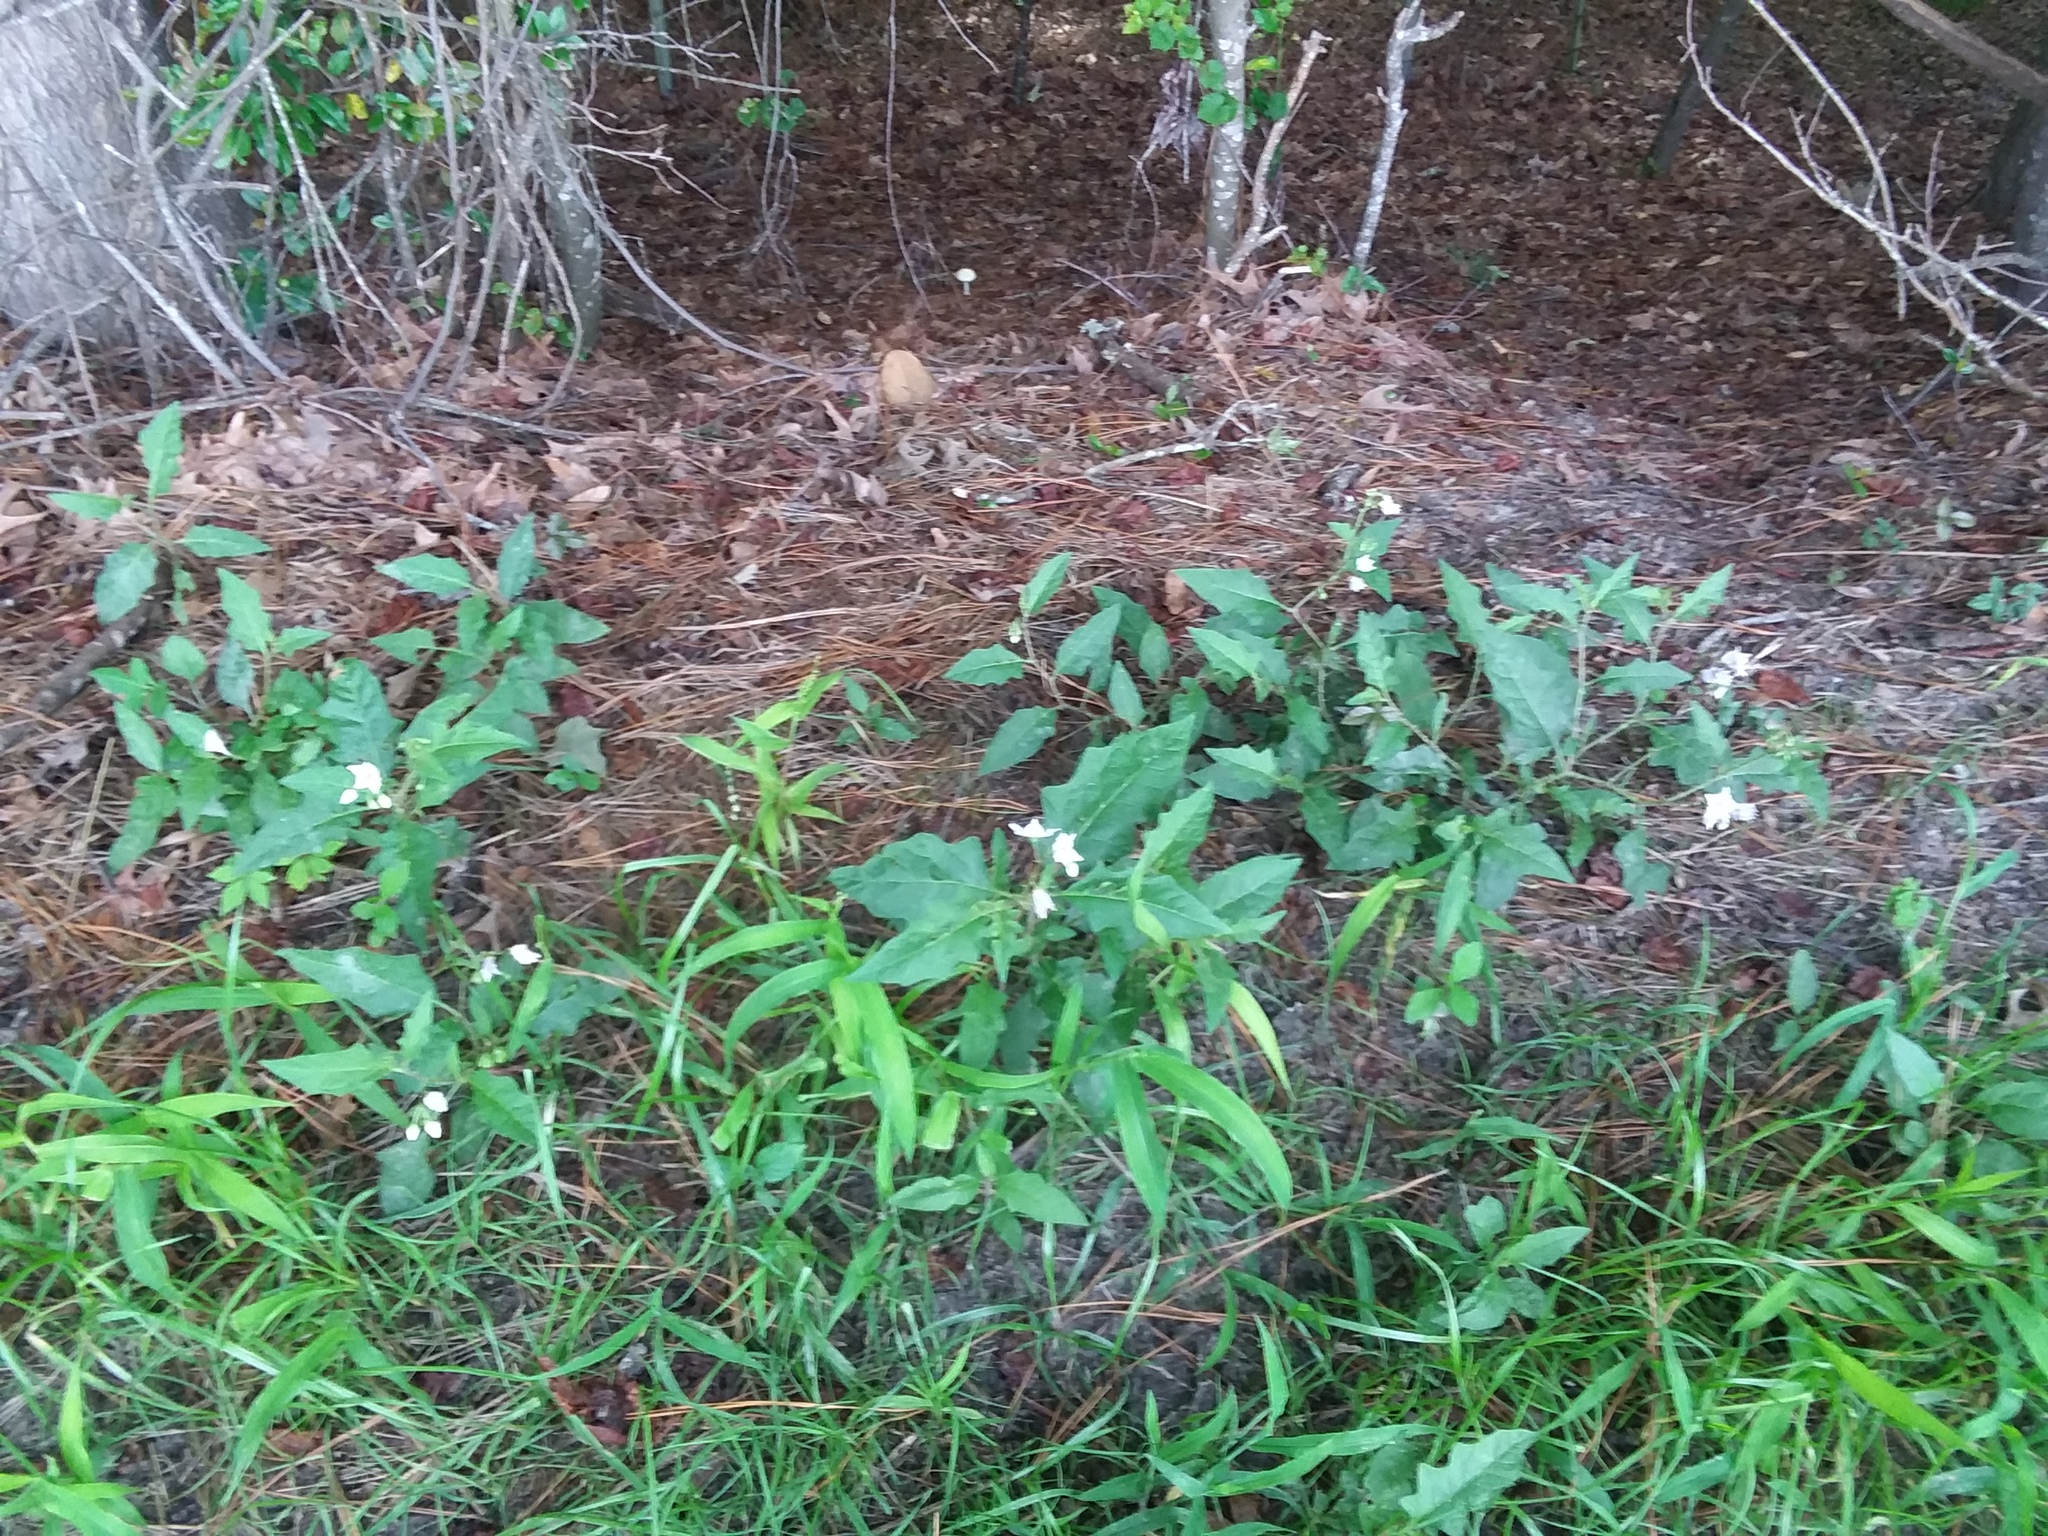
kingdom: Plantae
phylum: Tracheophyta
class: Magnoliopsida
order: Solanales
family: Solanaceae
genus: Solanum
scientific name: Solanum carolinense
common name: Horse-nettle
